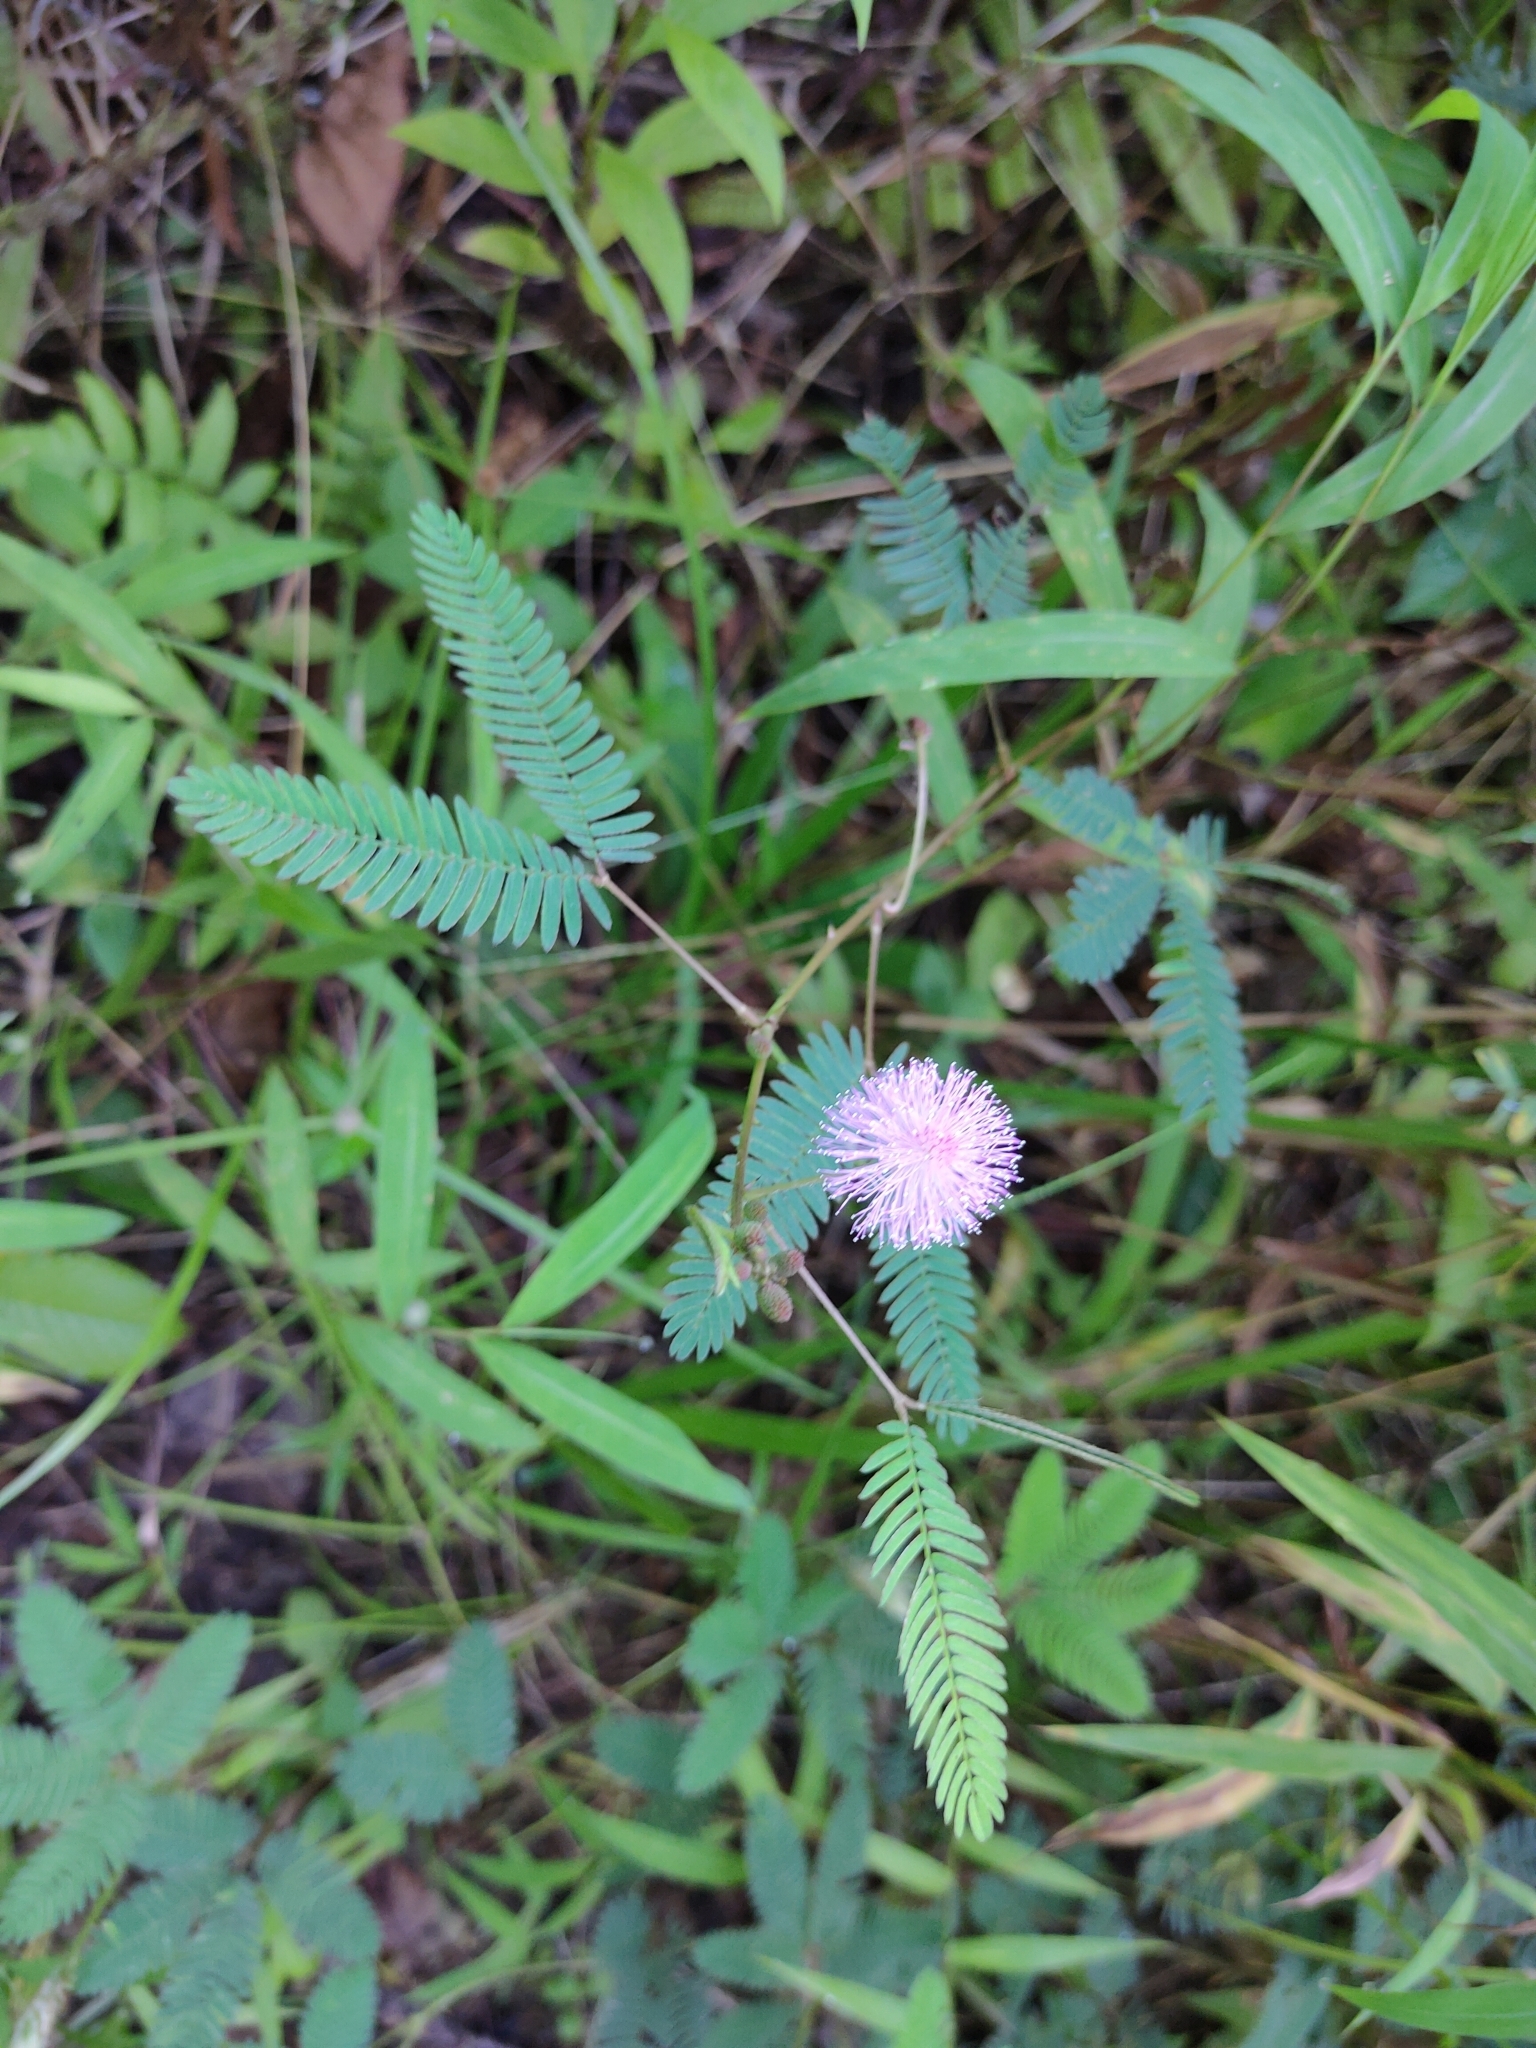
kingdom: Plantae
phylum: Tracheophyta
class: Magnoliopsida
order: Fabales
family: Fabaceae
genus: Mimosa
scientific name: Mimosa pudica
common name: Sensitive plant
